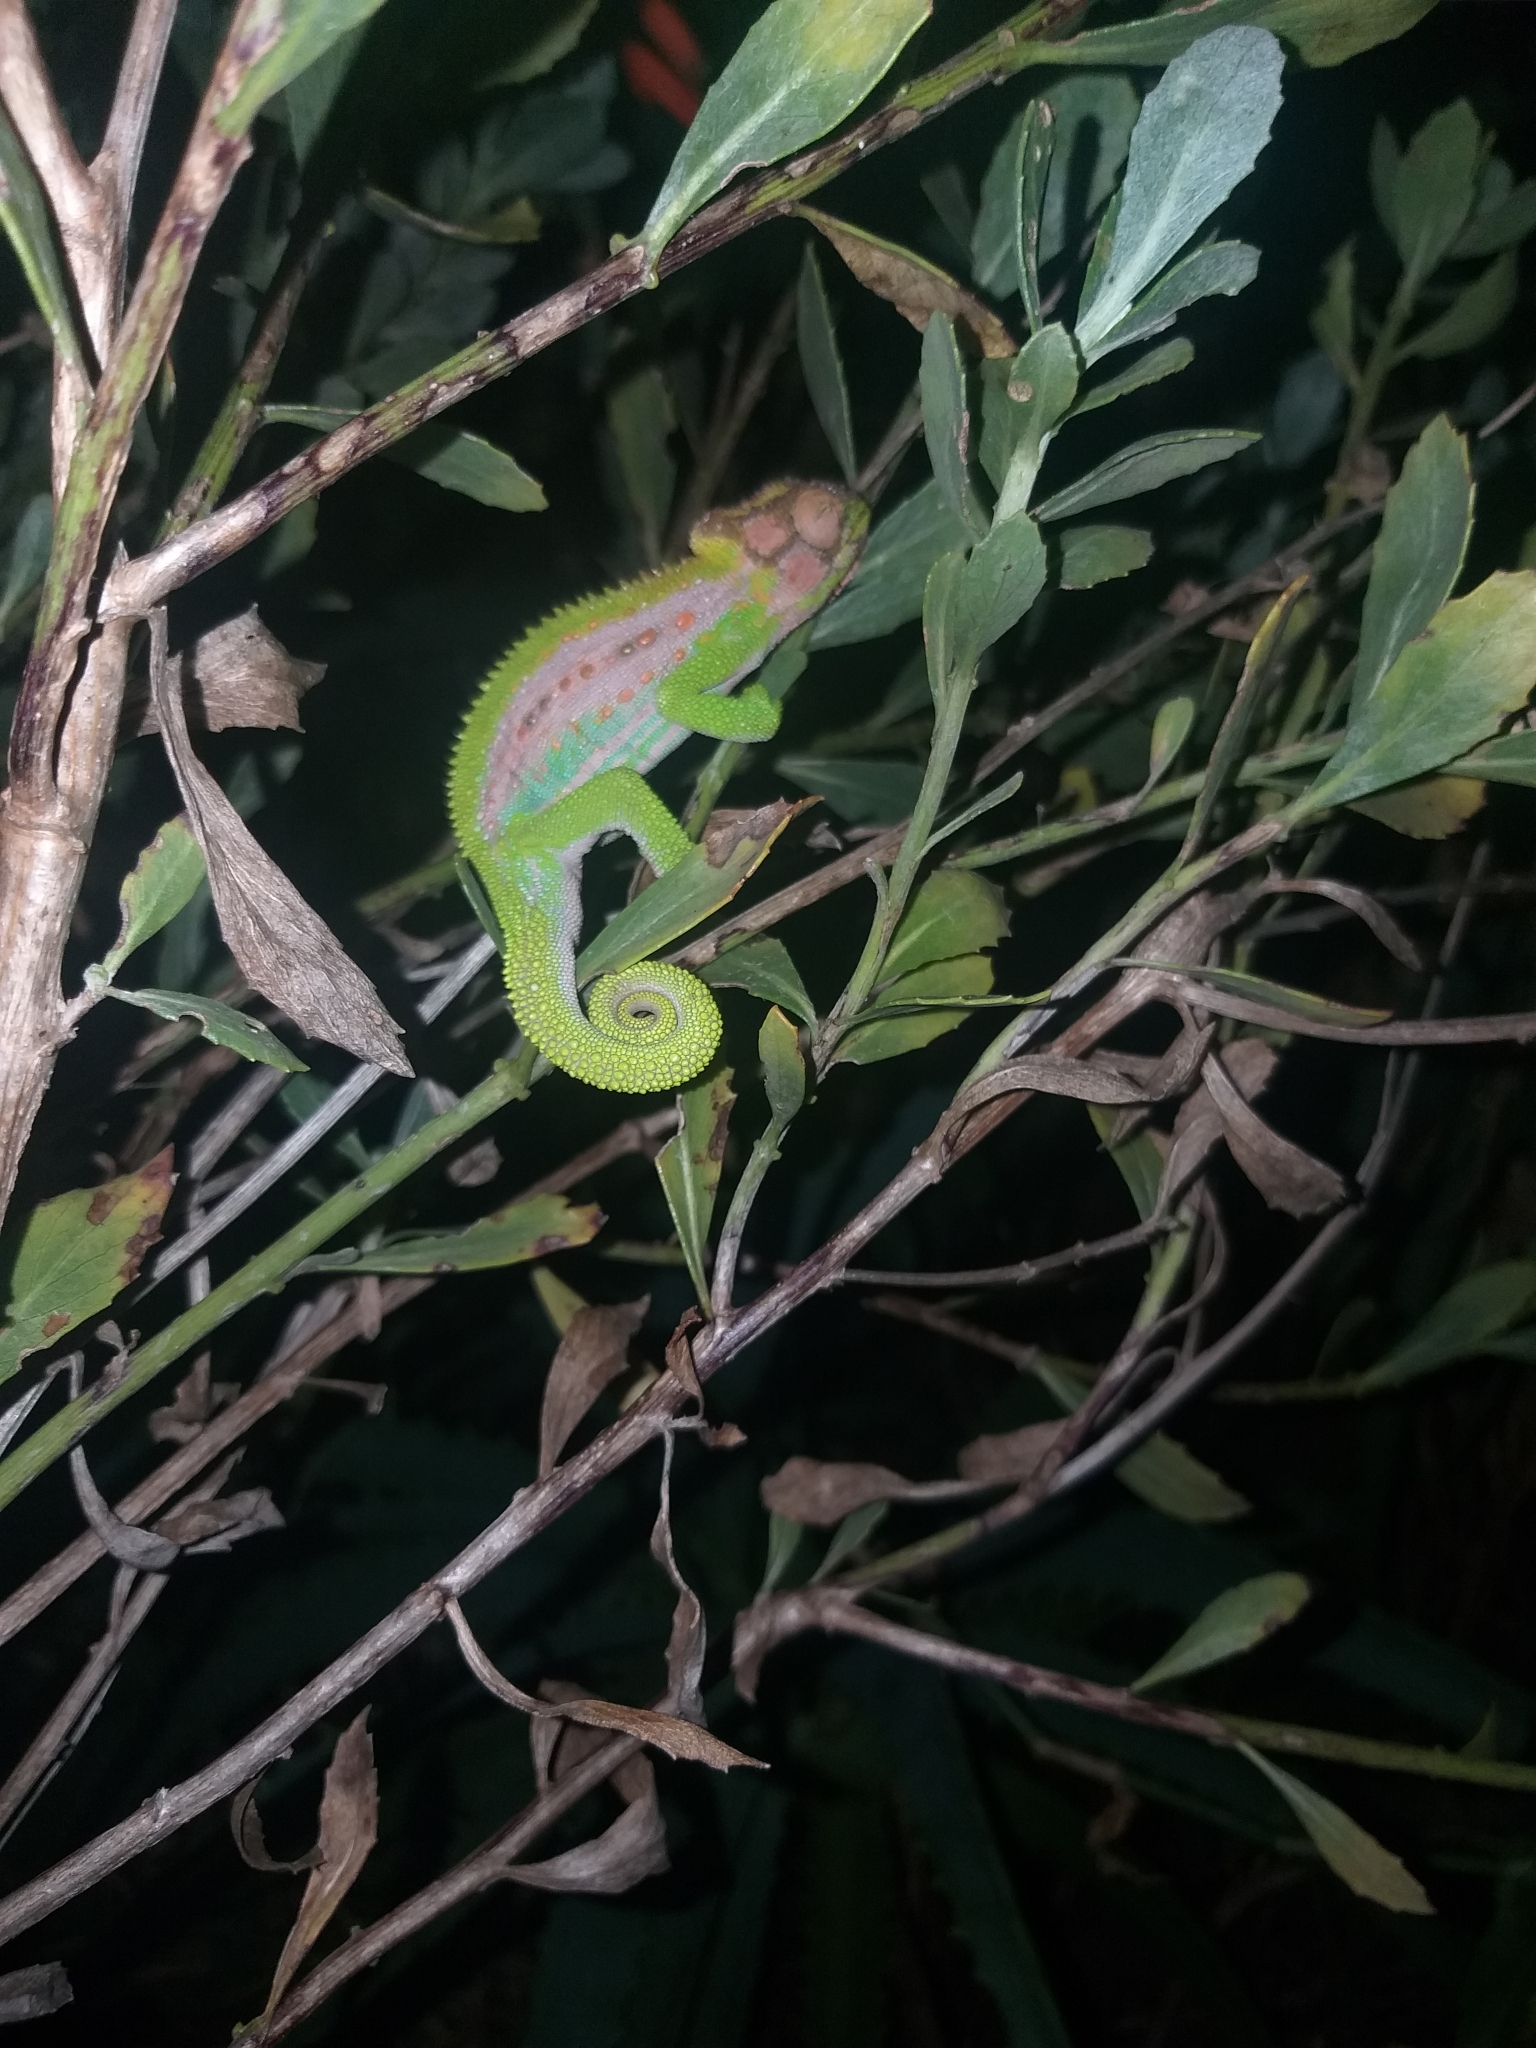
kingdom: Animalia
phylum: Chordata
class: Squamata
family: Chamaeleonidae
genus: Bradypodion
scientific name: Bradypodion pumilum
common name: Cape dwarf chameleon
